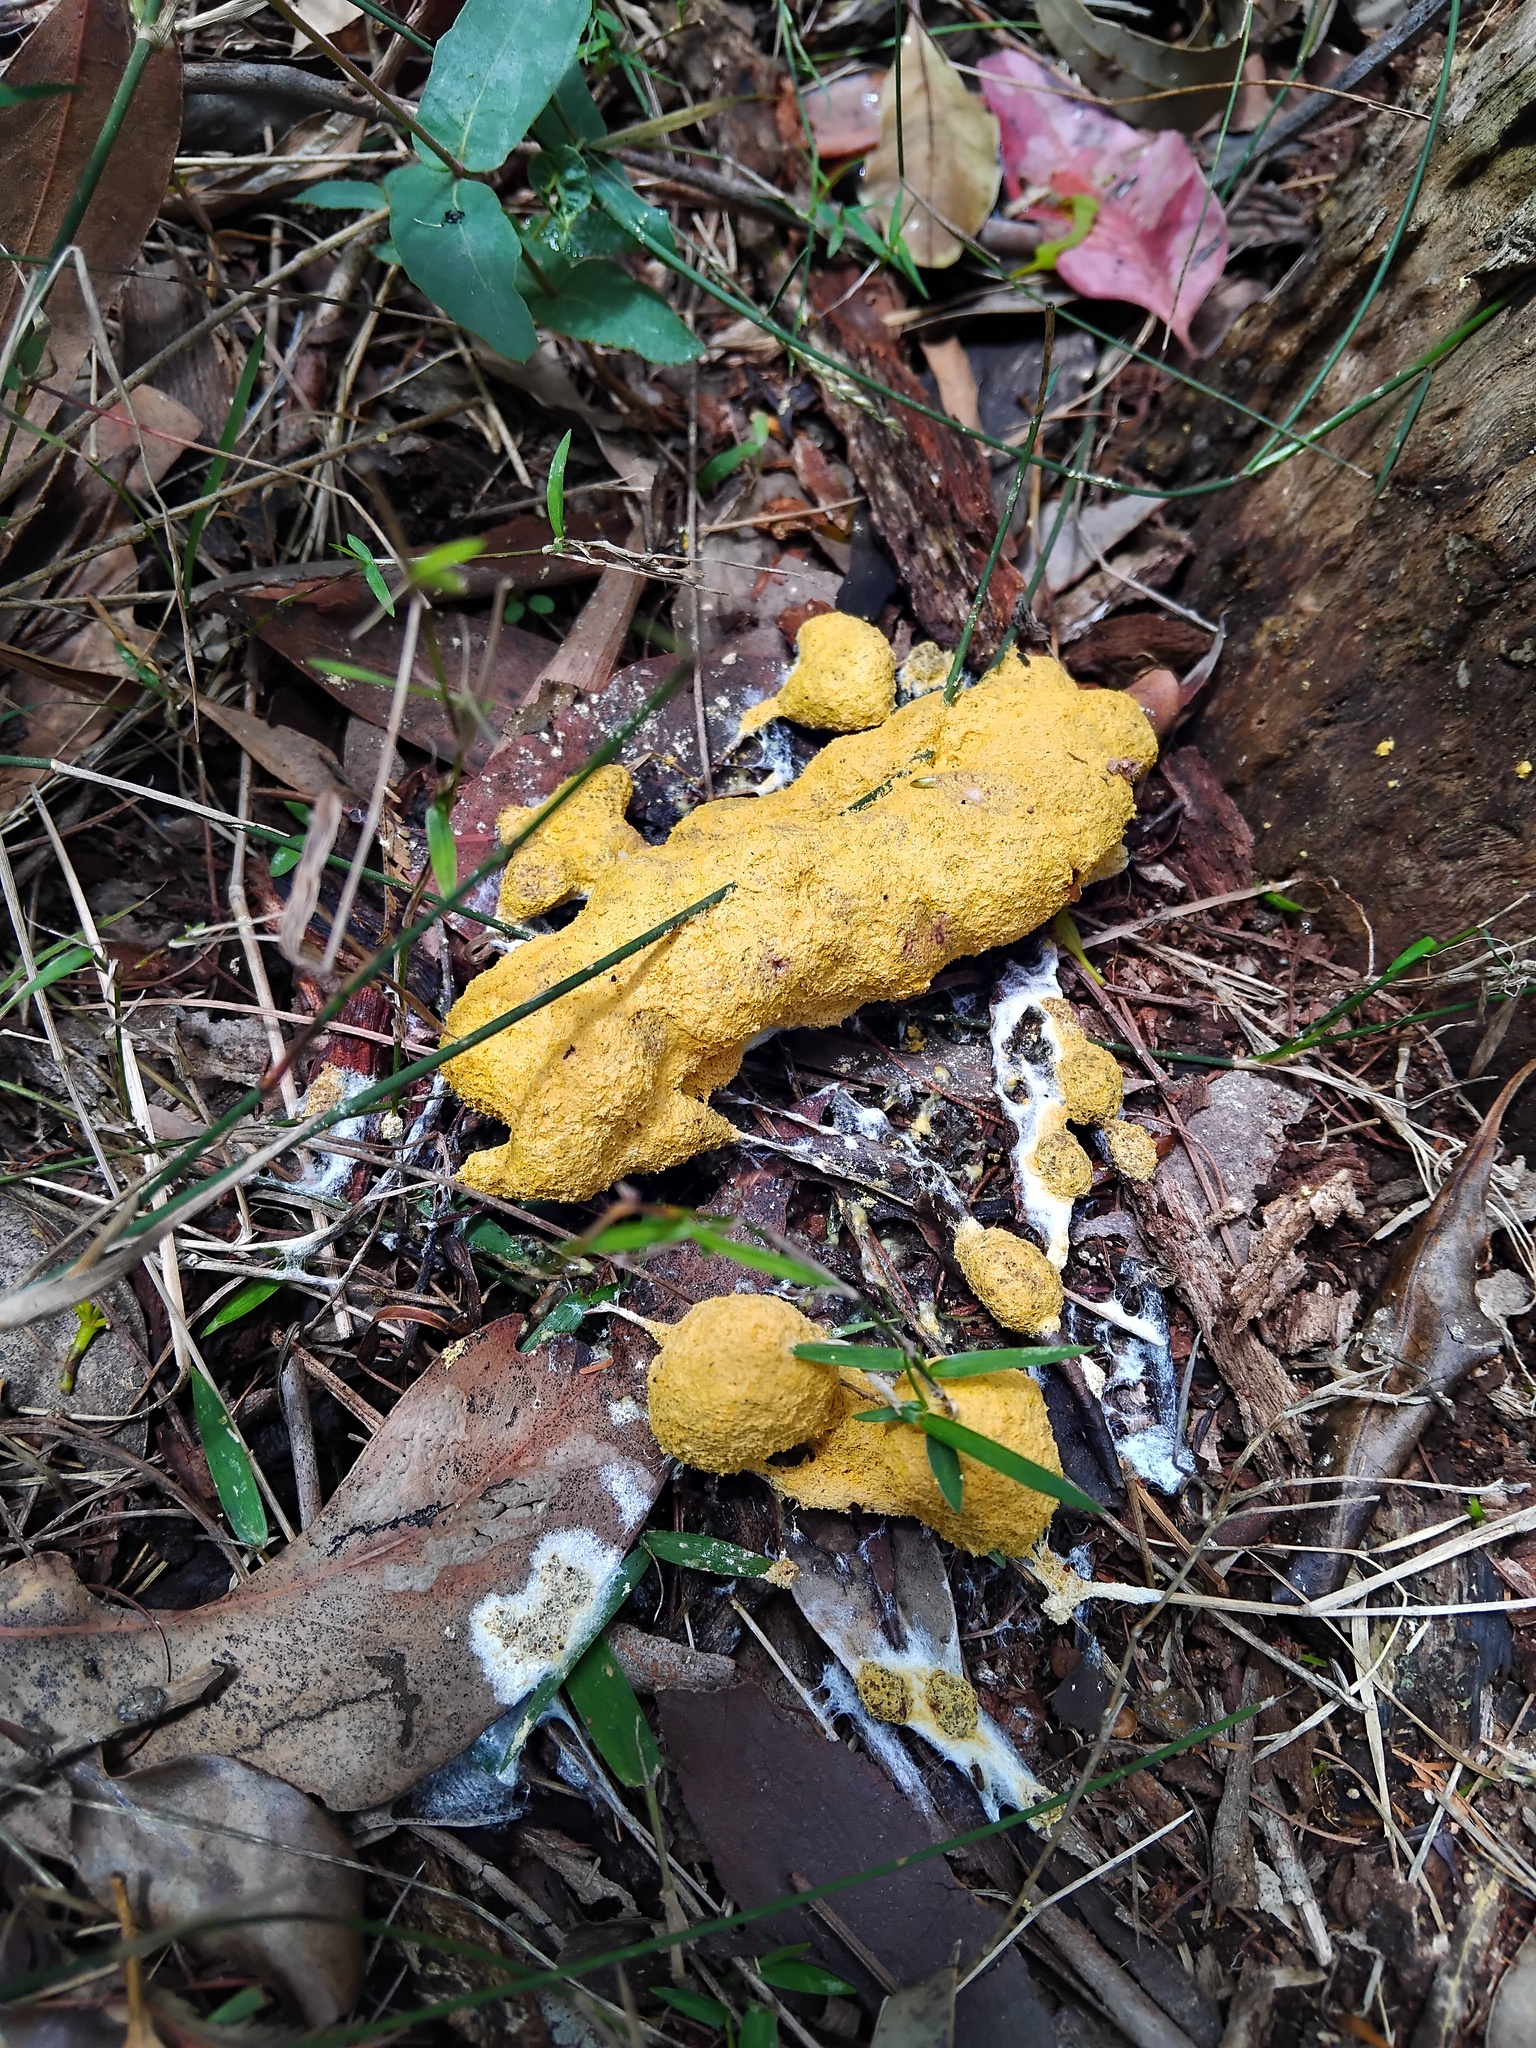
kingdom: Protozoa
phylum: Mycetozoa
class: Myxomycetes
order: Physarales
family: Physaraceae
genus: Fuligo
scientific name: Fuligo septica
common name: Dog vomit slime mold
